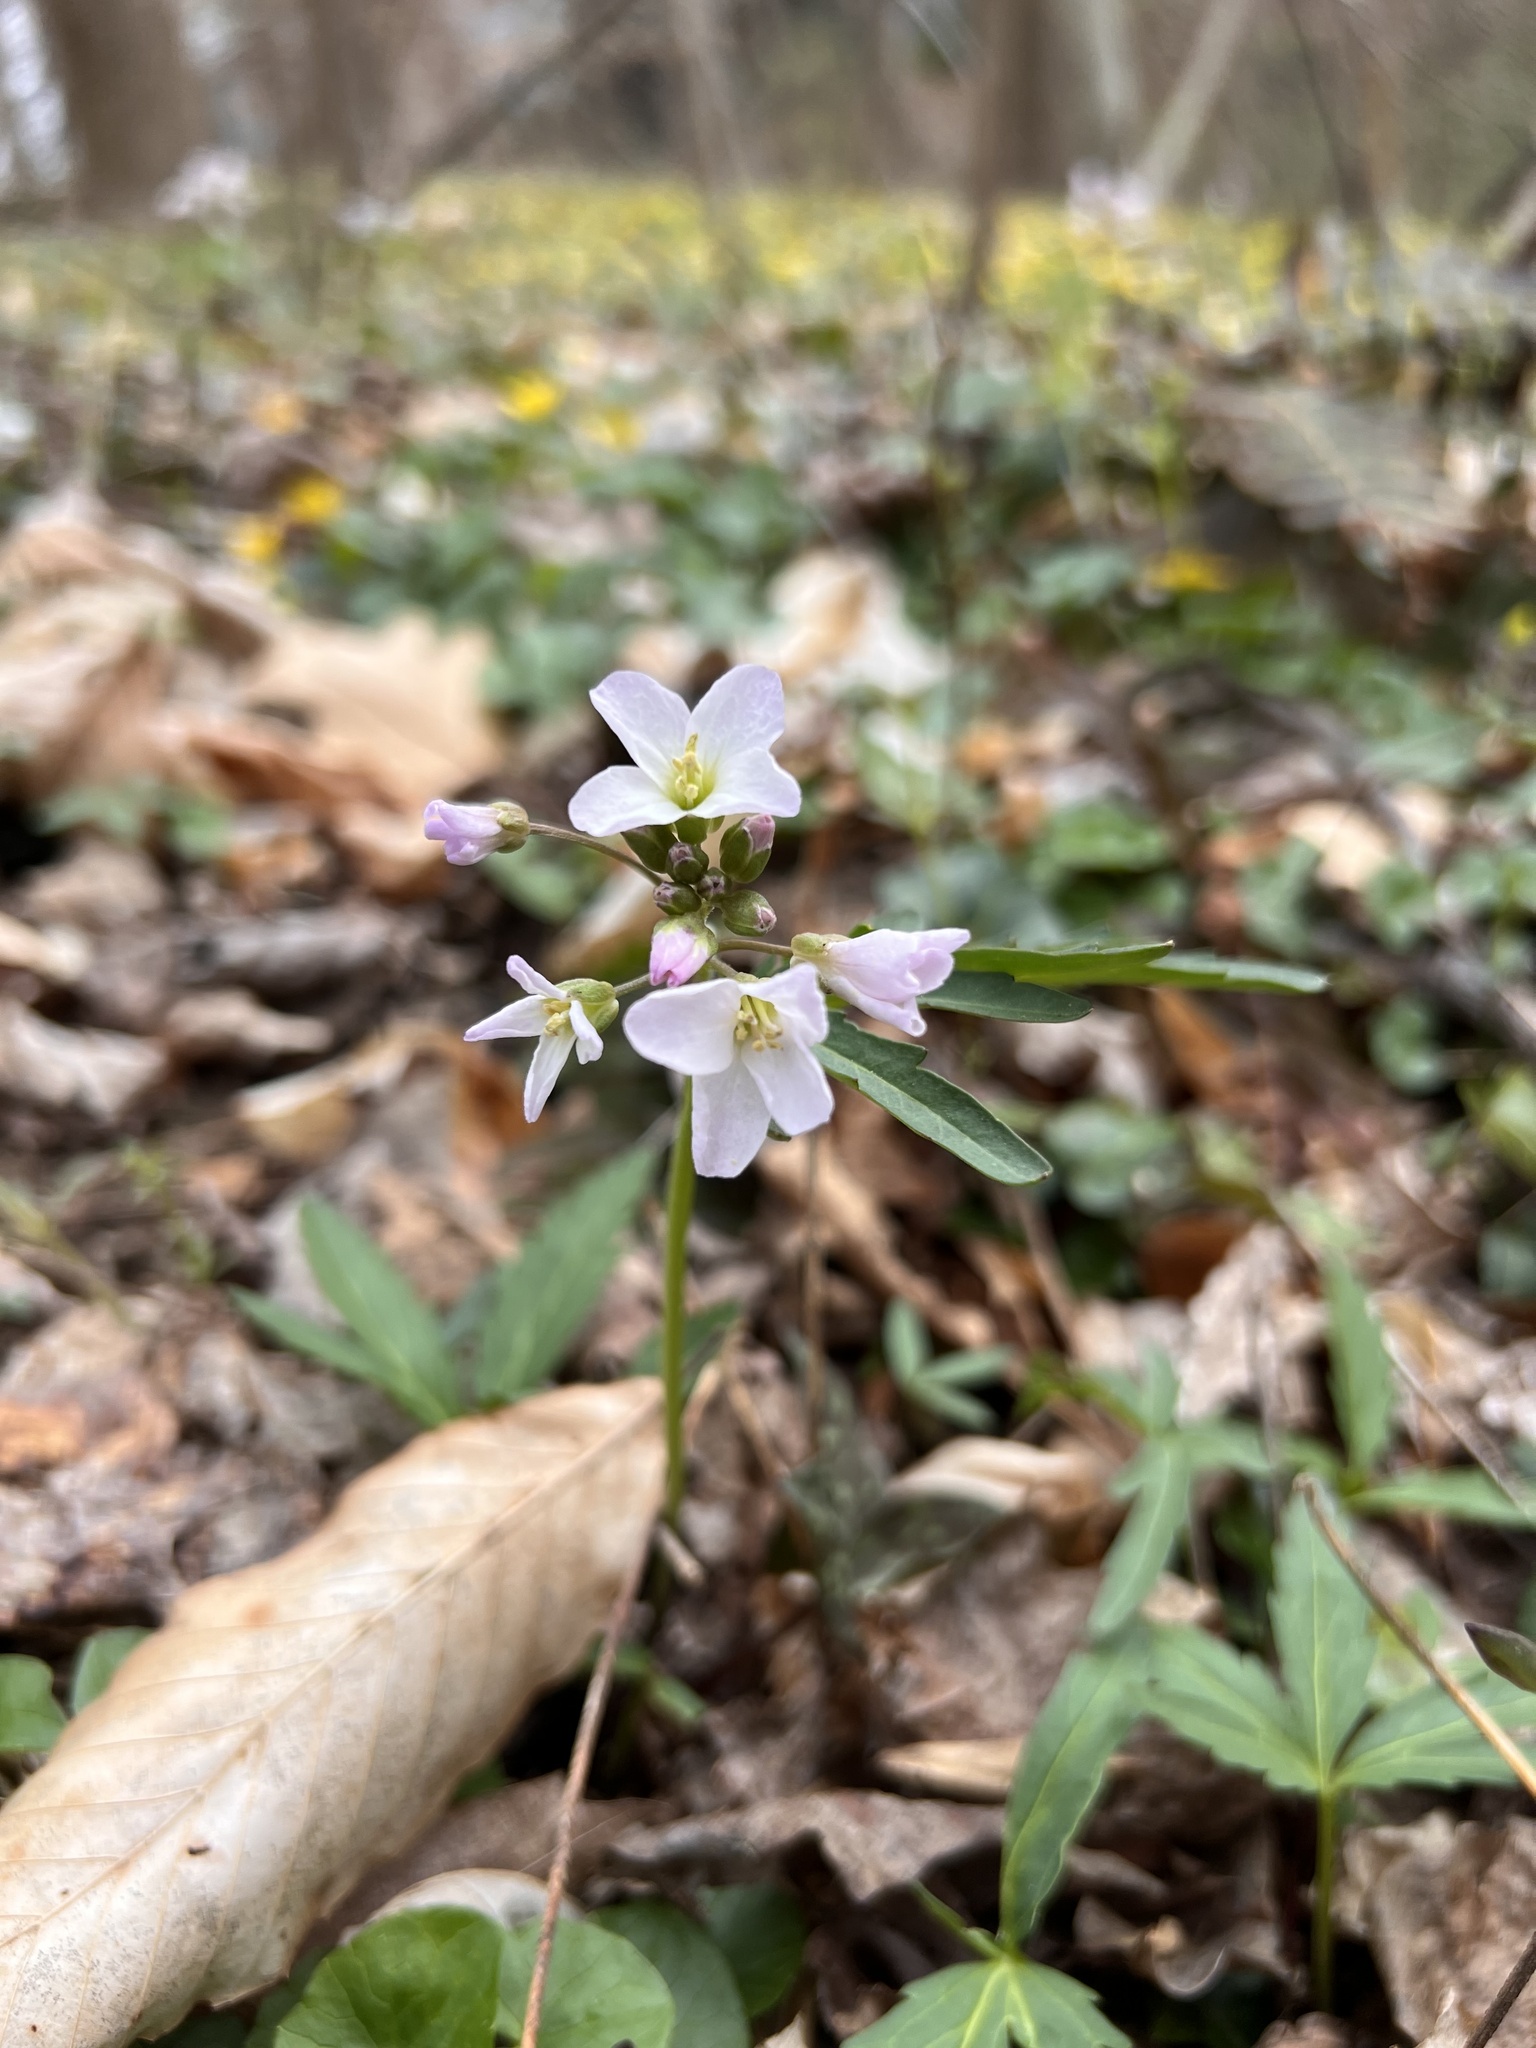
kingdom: Plantae
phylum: Tracheophyta
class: Magnoliopsida
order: Brassicales
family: Brassicaceae
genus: Cardamine
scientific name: Cardamine concatenata
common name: Cut-leaf toothcup
